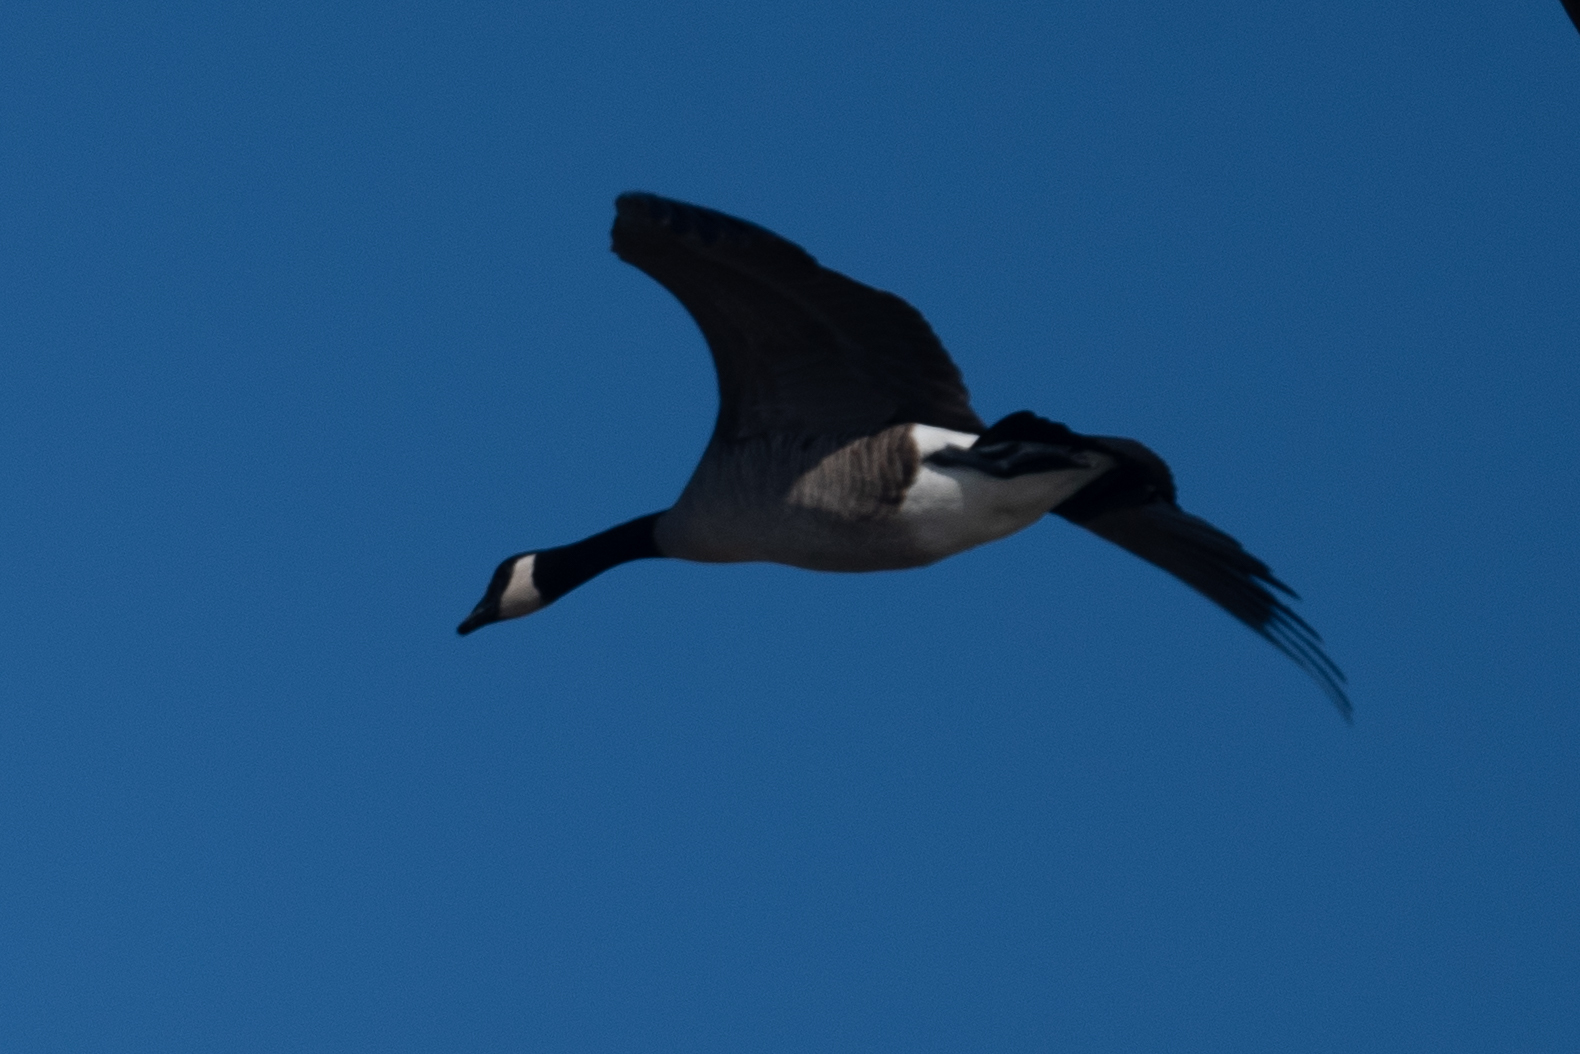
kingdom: Animalia
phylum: Chordata
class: Aves
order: Anseriformes
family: Anatidae
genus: Branta
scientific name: Branta canadensis
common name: Canada goose
